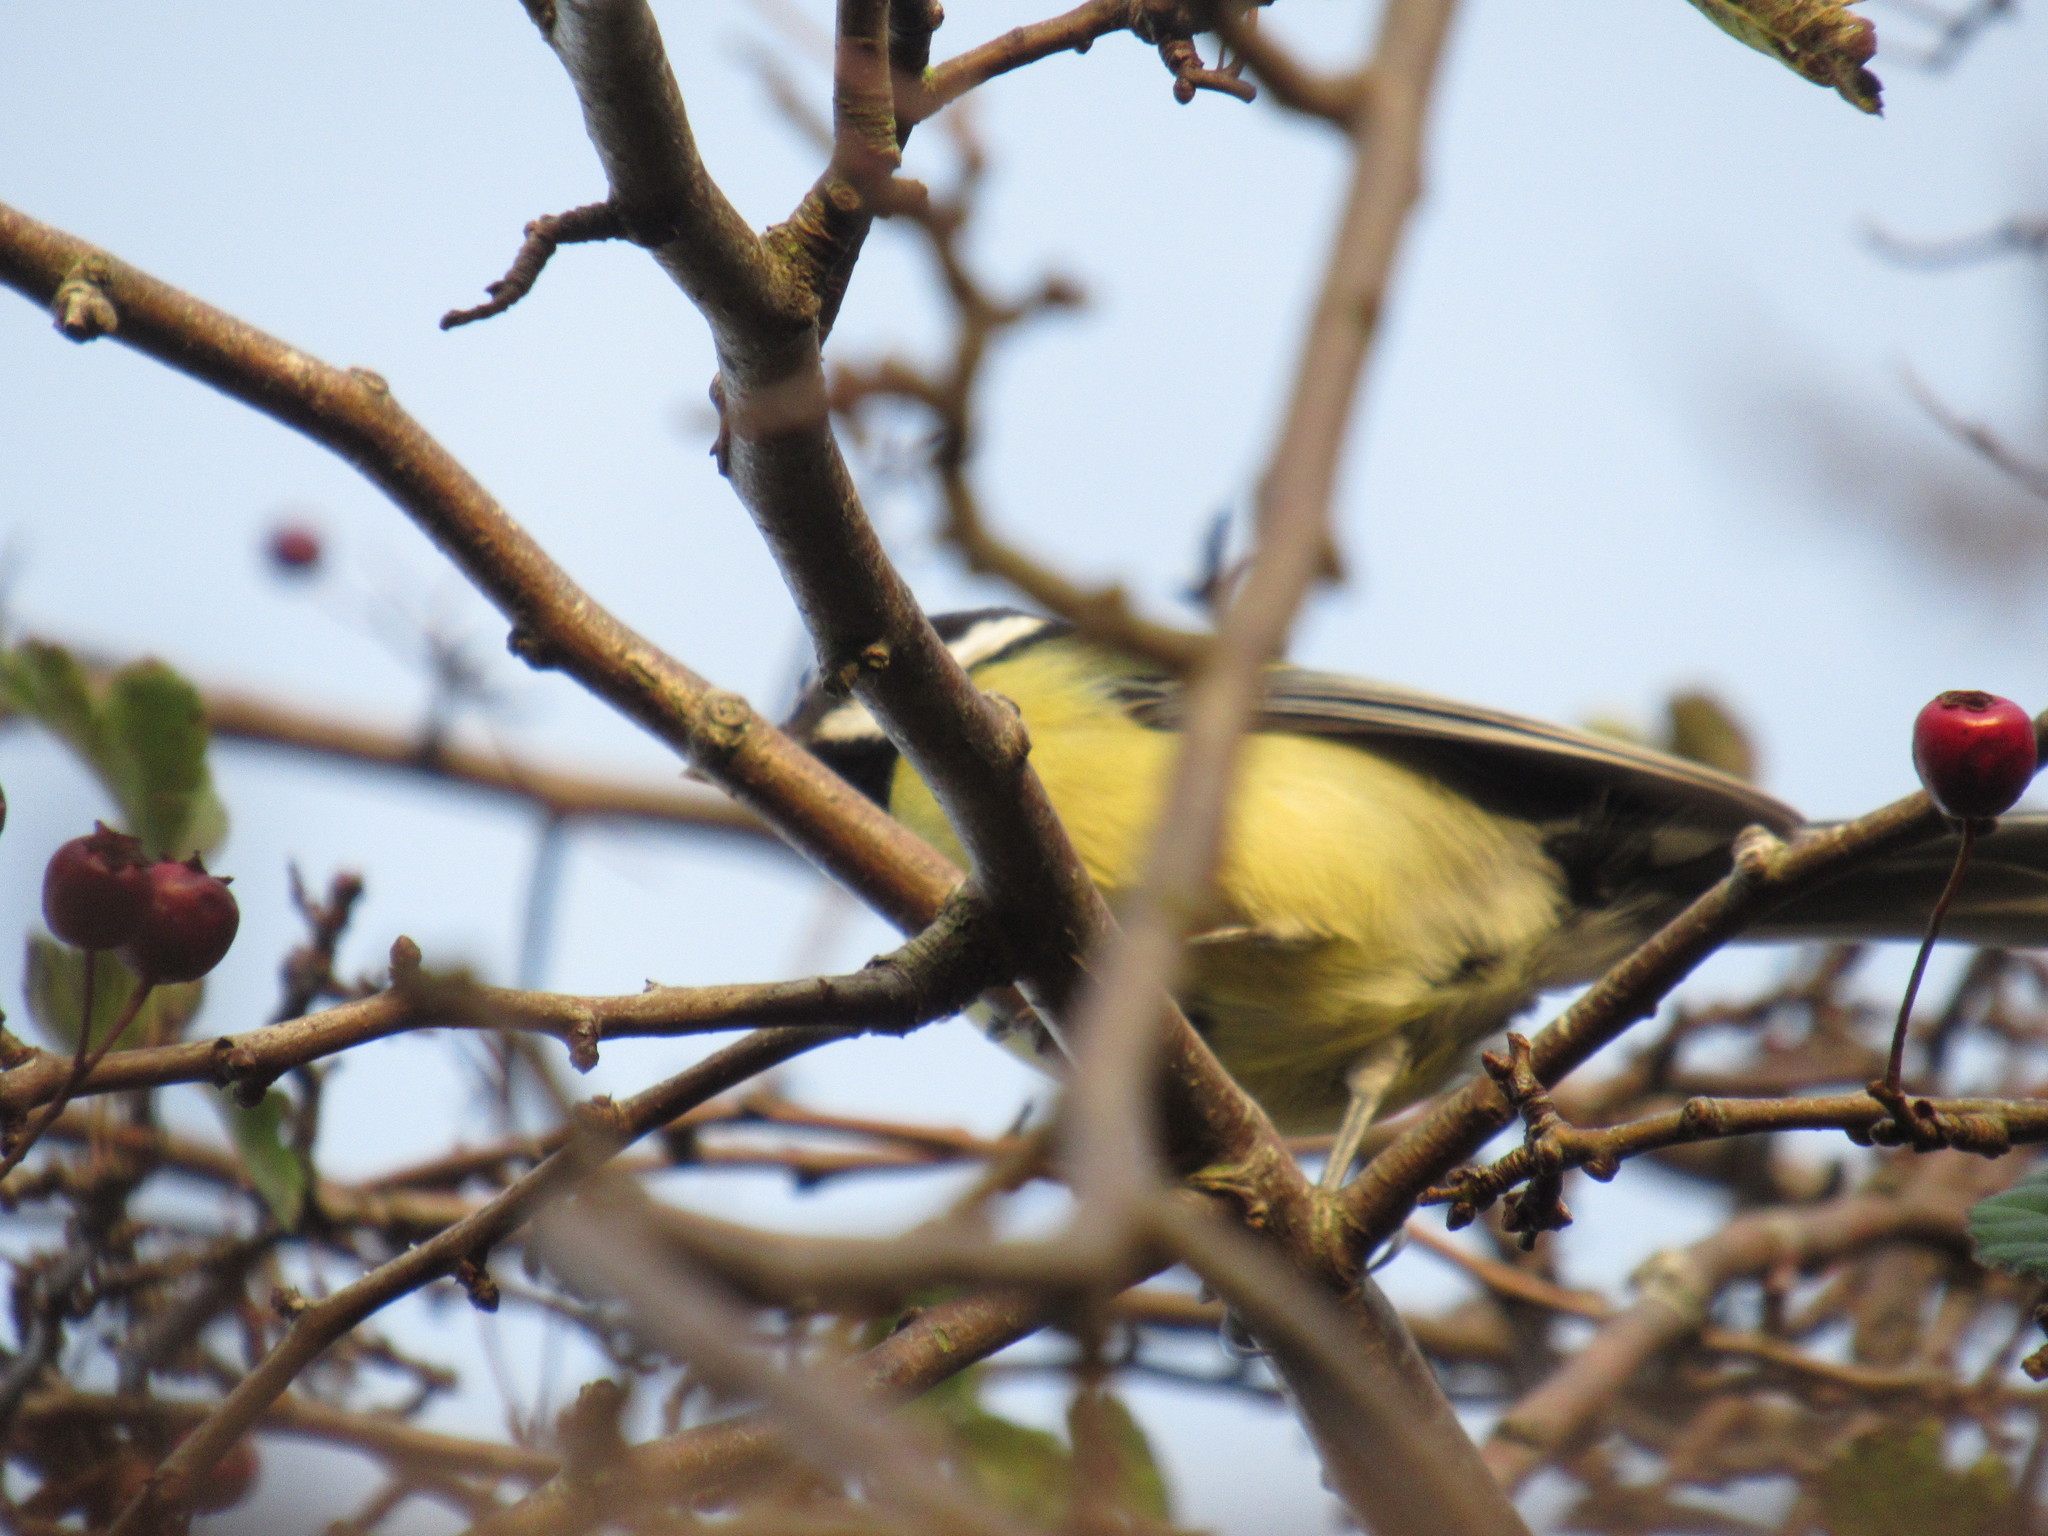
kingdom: Animalia
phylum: Chordata
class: Aves
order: Passeriformes
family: Paridae
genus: Parus
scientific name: Parus major
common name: Great tit
